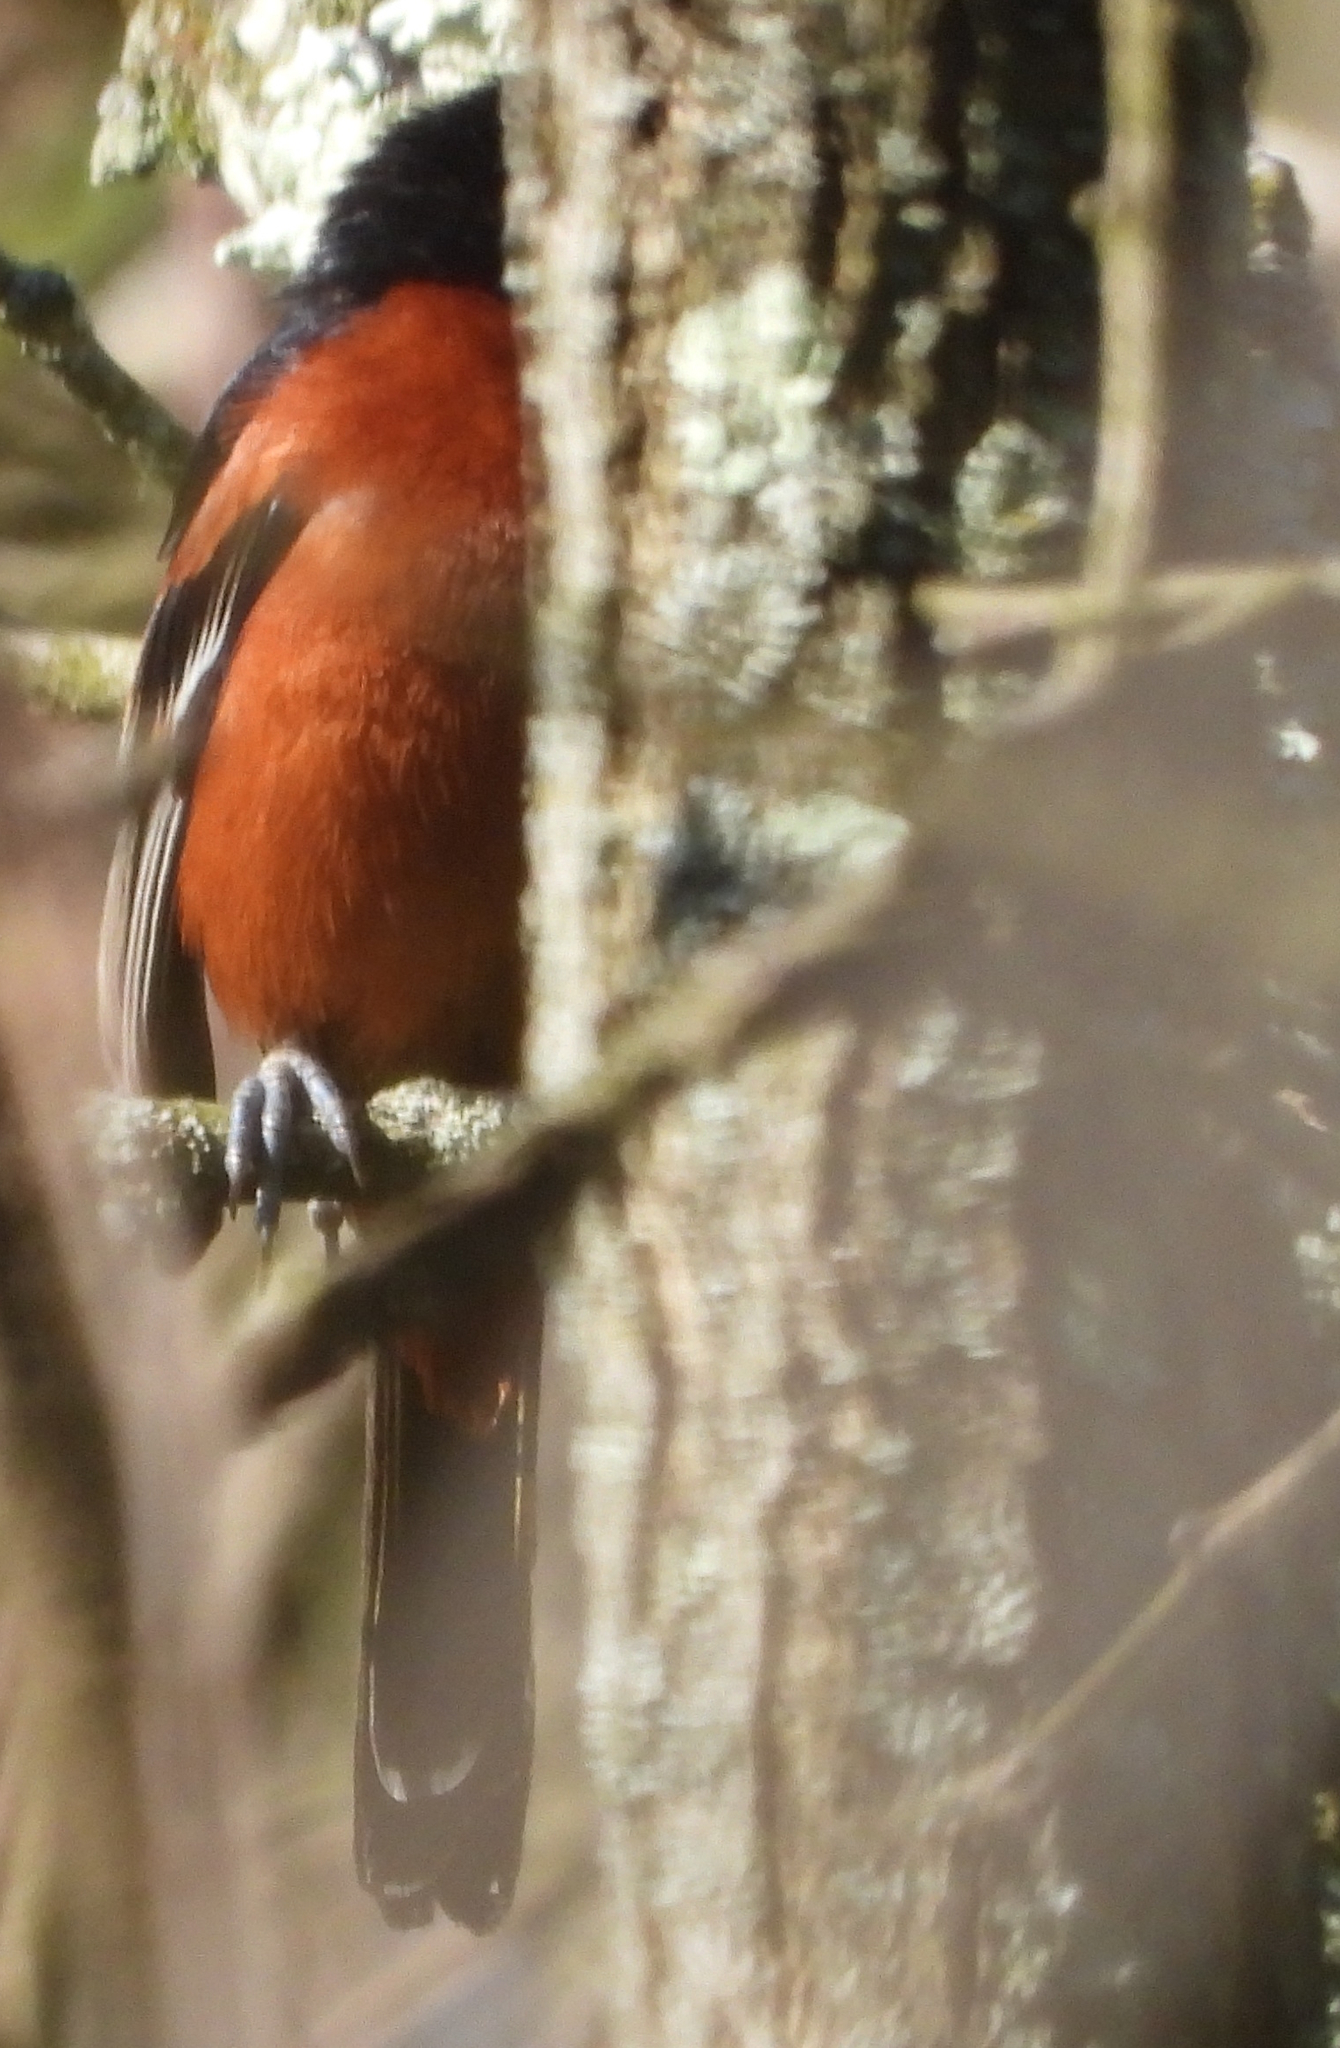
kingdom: Animalia
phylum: Chordata
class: Aves
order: Passeriformes
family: Icteridae
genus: Icterus
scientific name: Icterus spurius
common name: Orchard oriole
